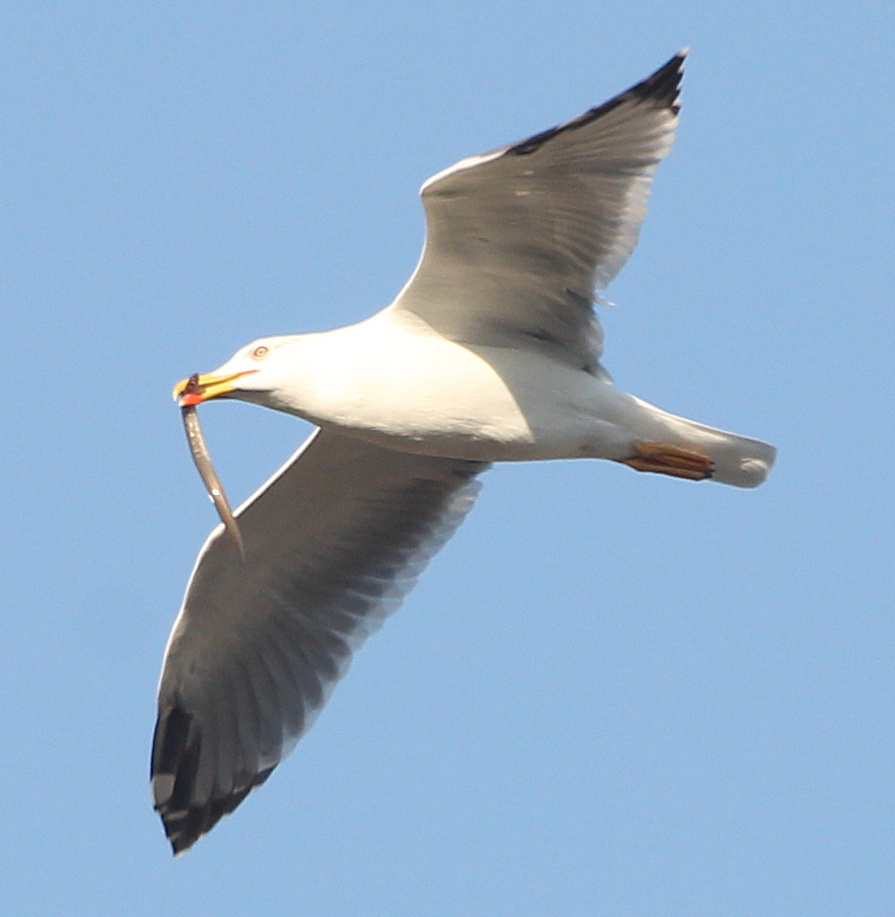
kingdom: Animalia
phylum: Chordata
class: Aves
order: Charadriiformes
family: Laridae
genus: Larus
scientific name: Larus michahellis
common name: Yellow-legged gull
